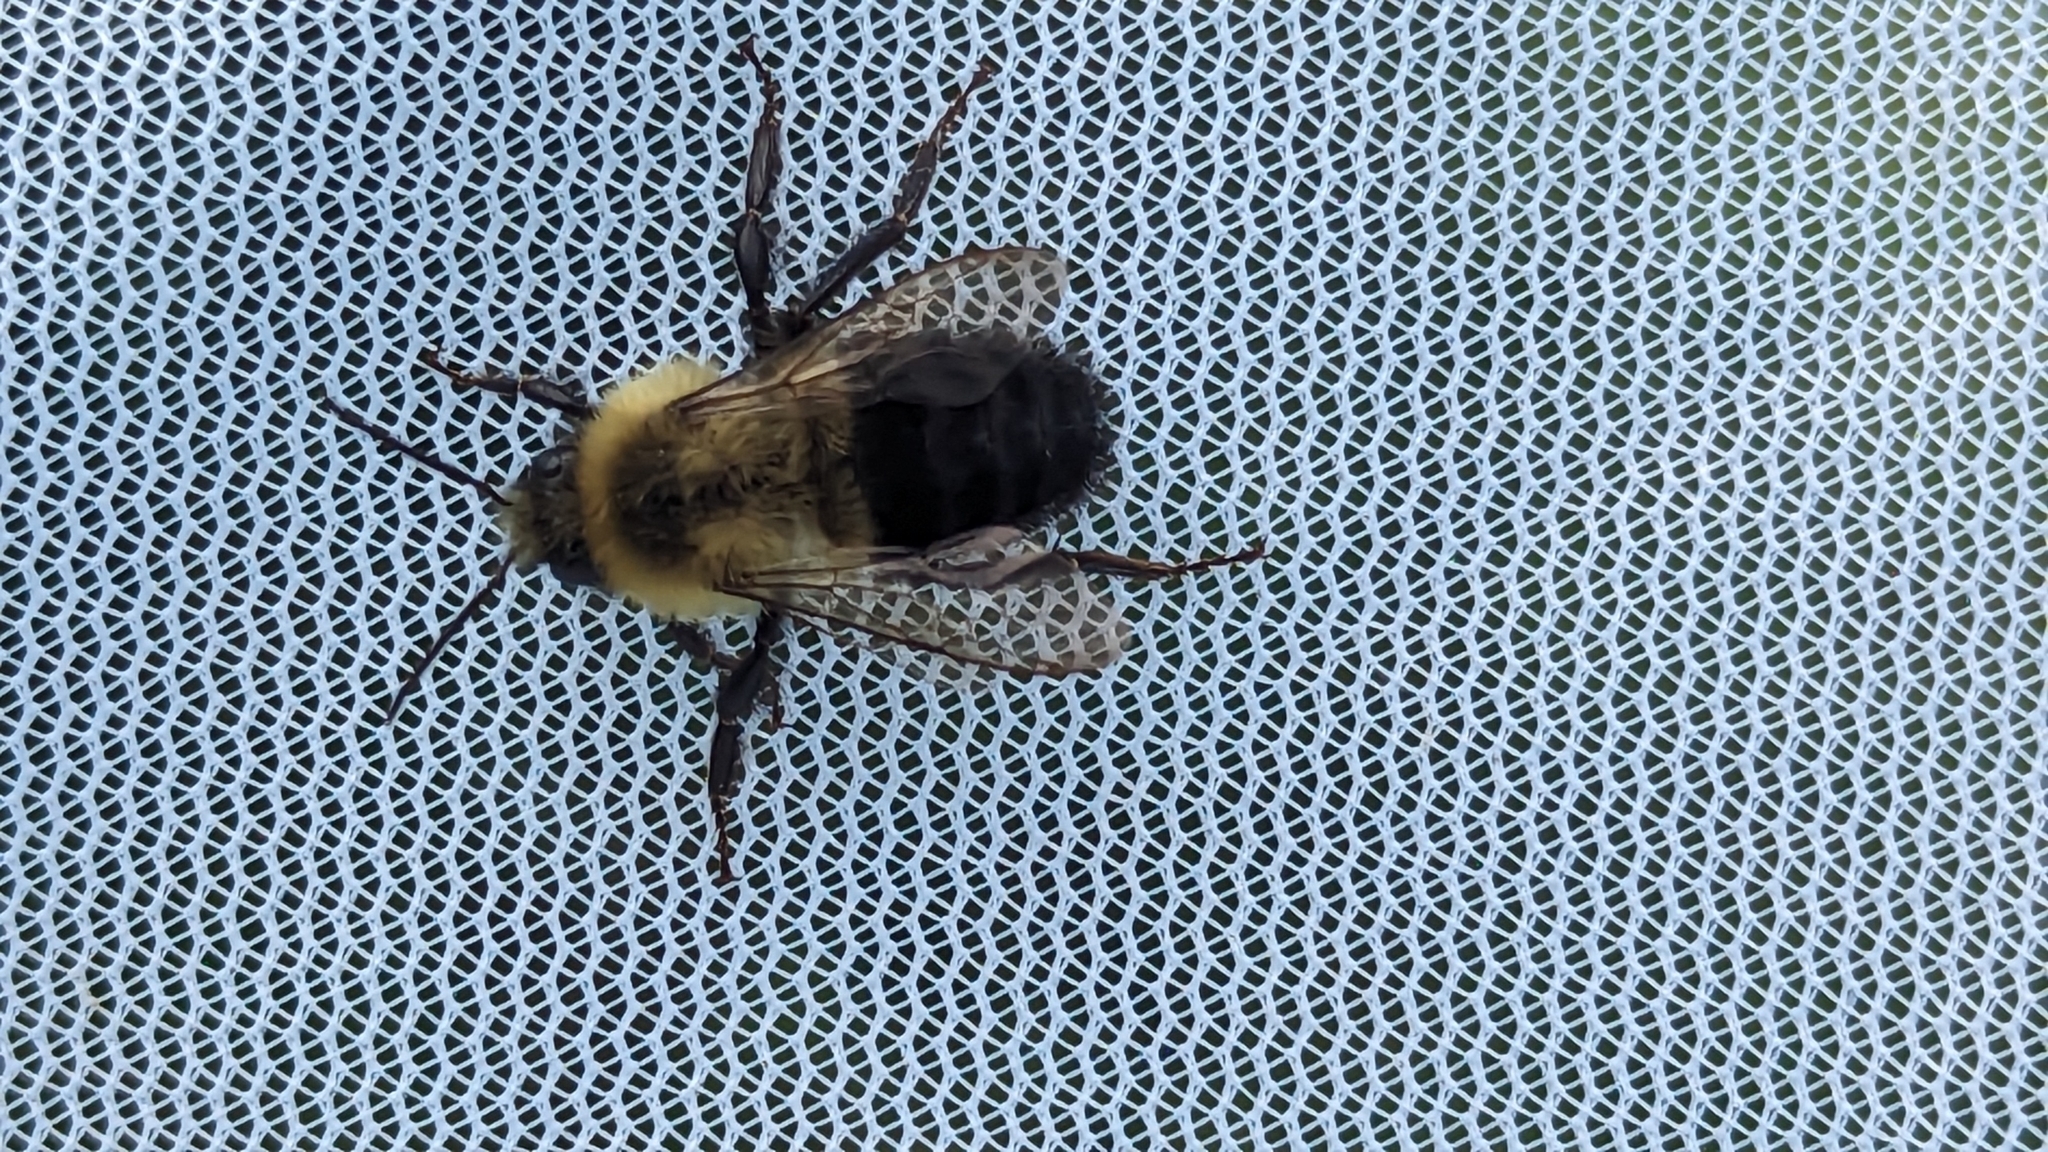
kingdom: Animalia
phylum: Arthropoda
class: Insecta
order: Hymenoptera
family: Apidae
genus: Bombus
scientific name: Bombus impatiens
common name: Common eastern bumble bee
